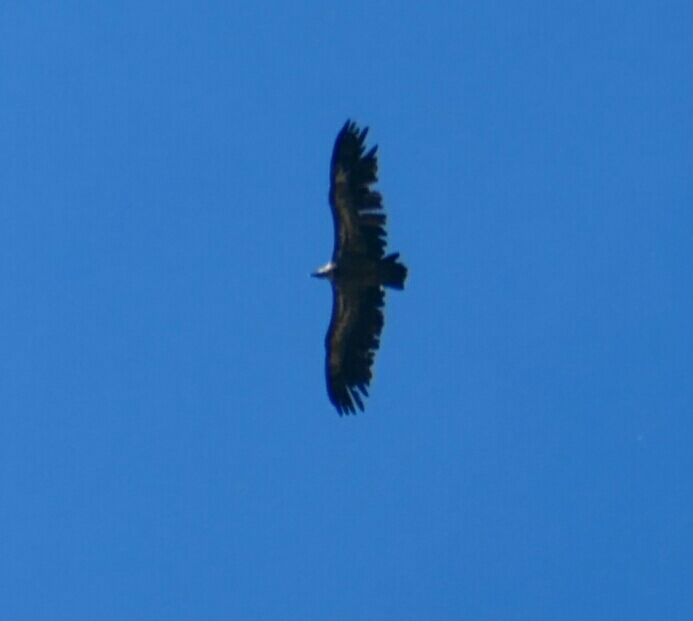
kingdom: Animalia
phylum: Chordata
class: Aves
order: Accipitriformes
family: Accipitridae
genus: Gyps
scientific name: Gyps fulvus
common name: Griffon vulture
